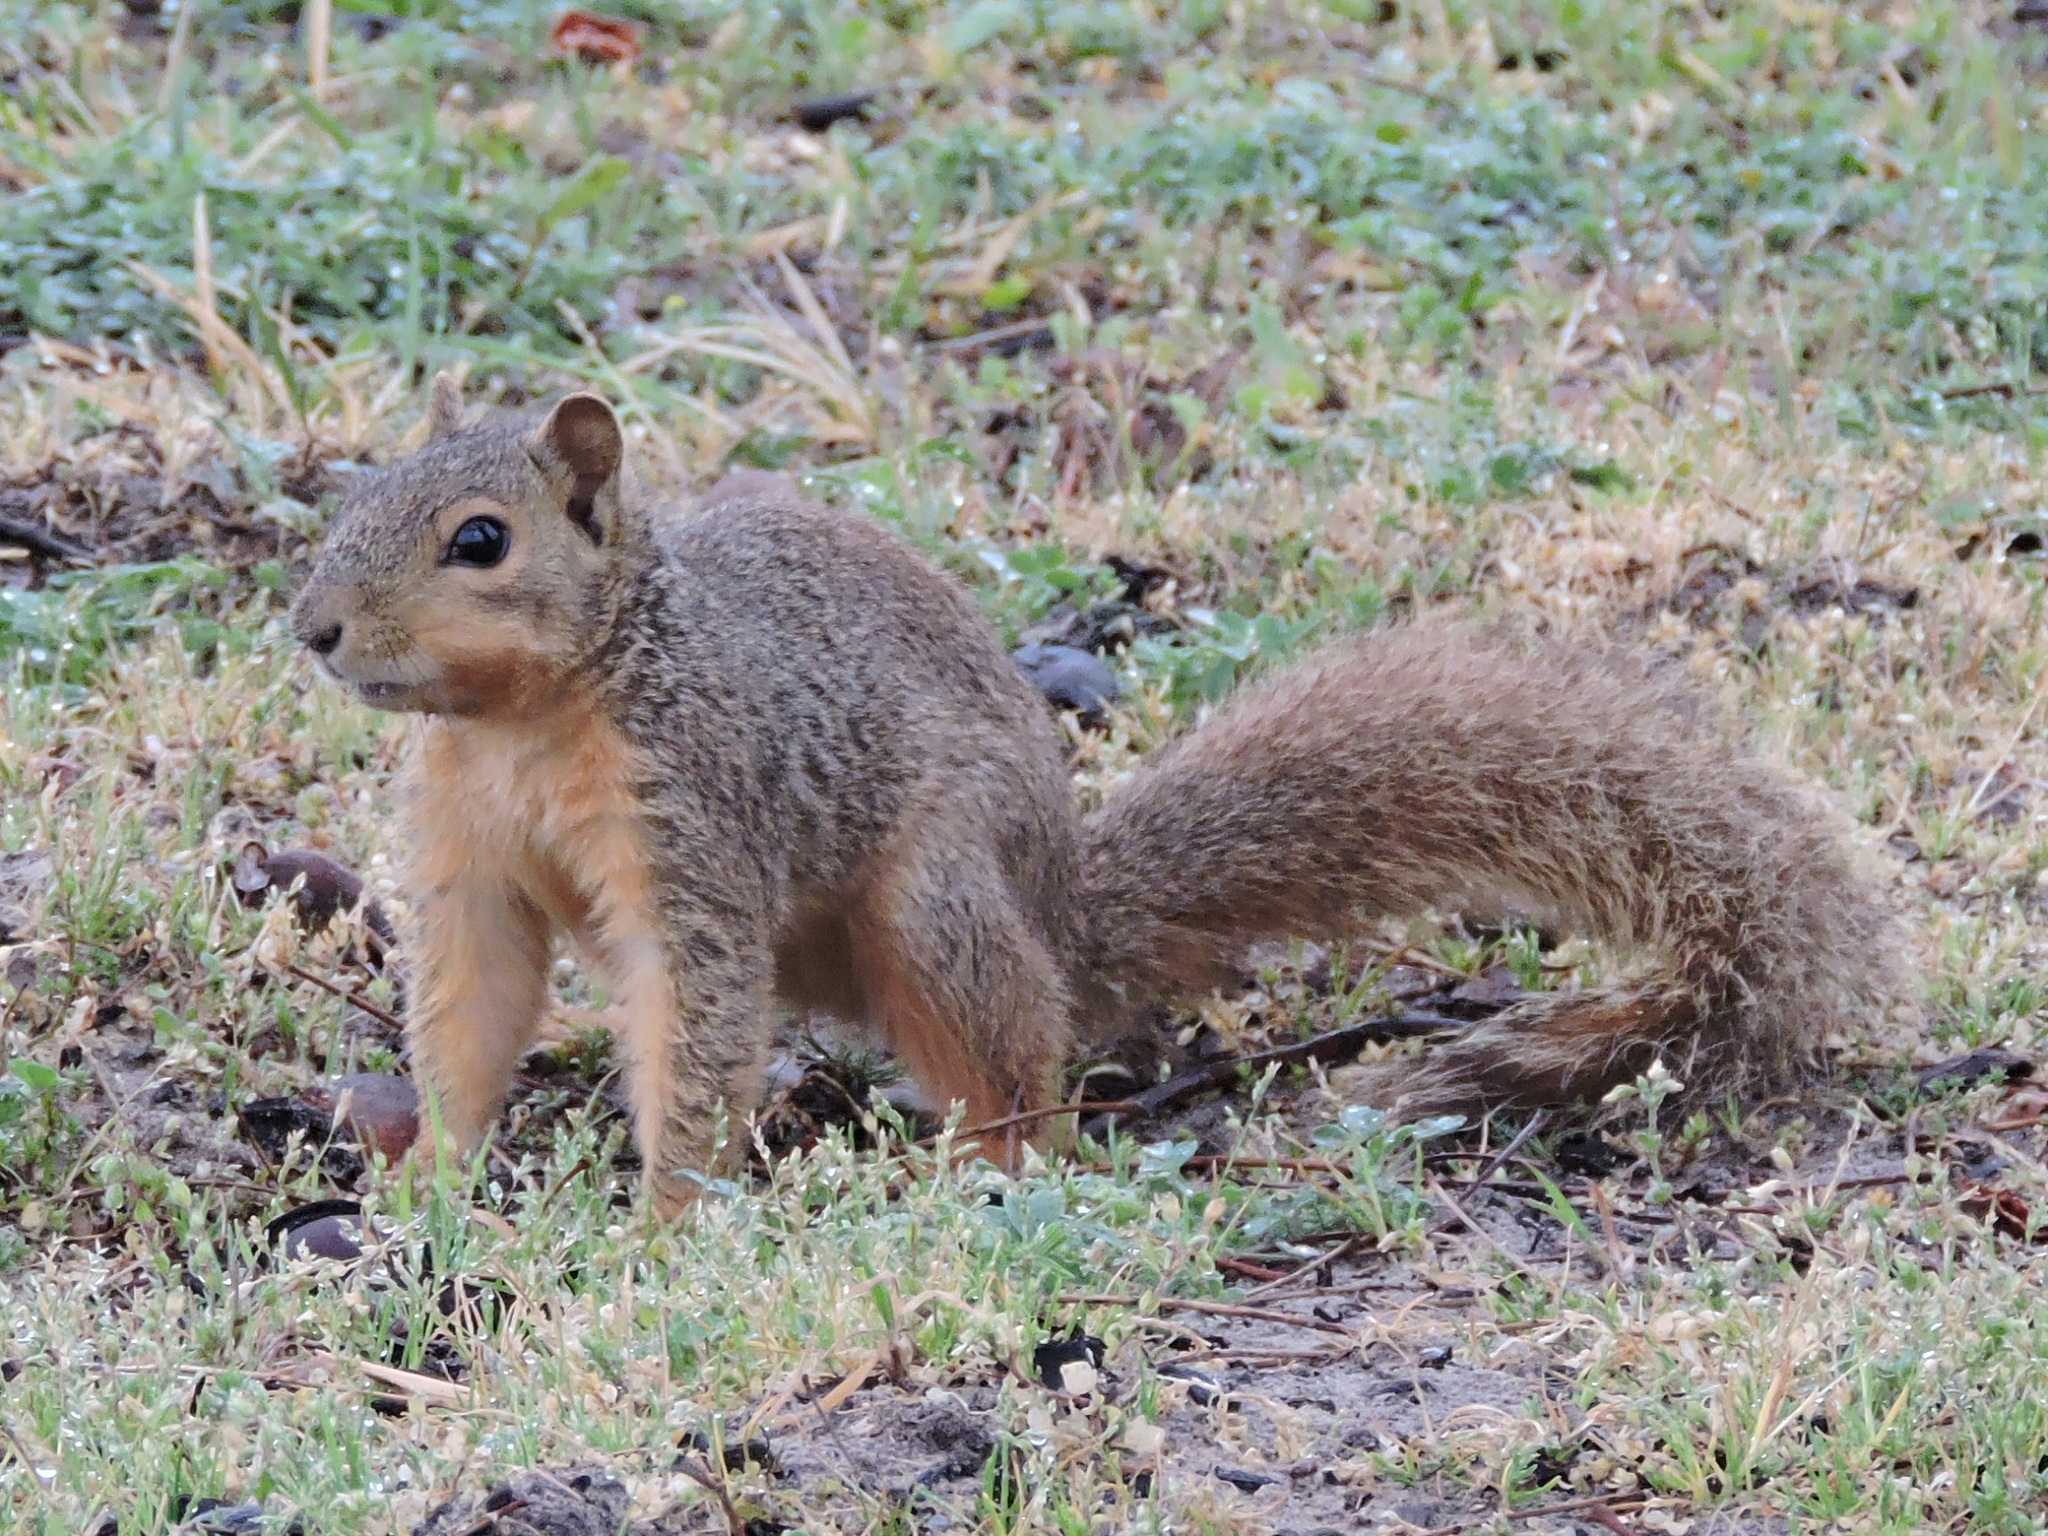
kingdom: Animalia
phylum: Chordata
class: Mammalia
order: Rodentia
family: Sciuridae
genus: Sciurus
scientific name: Sciurus niger
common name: Fox squirrel
